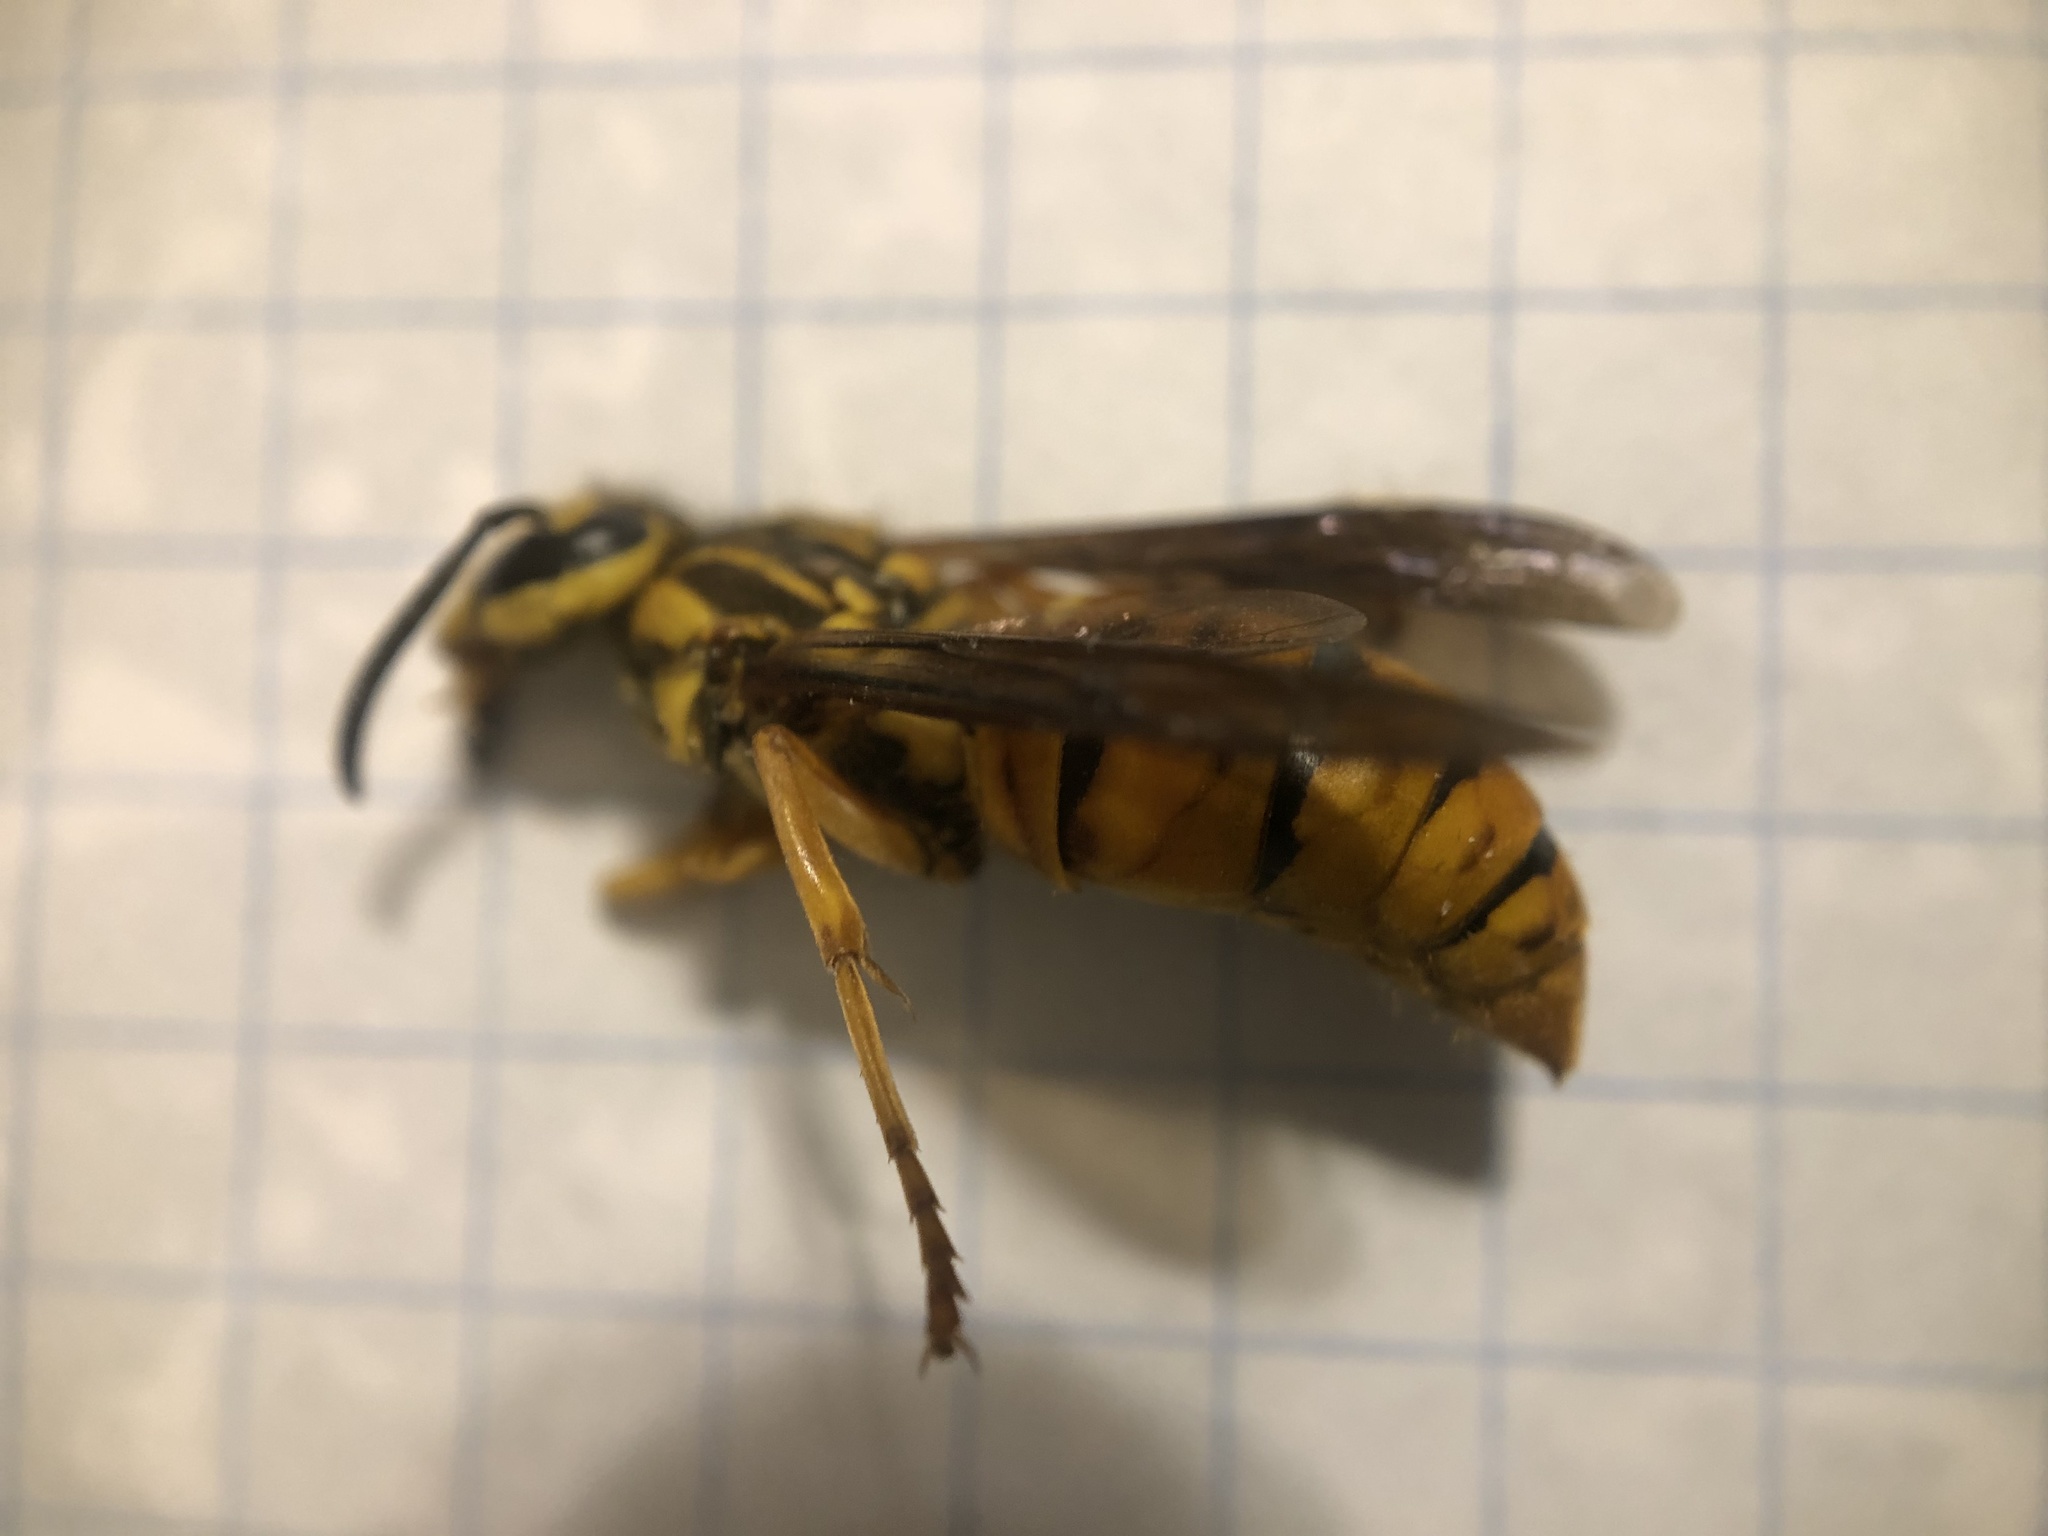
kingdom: Animalia
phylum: Arthropoda
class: Insecta
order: Hymenoptera
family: Vespidae
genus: Vespula
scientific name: Vespula squamosa
